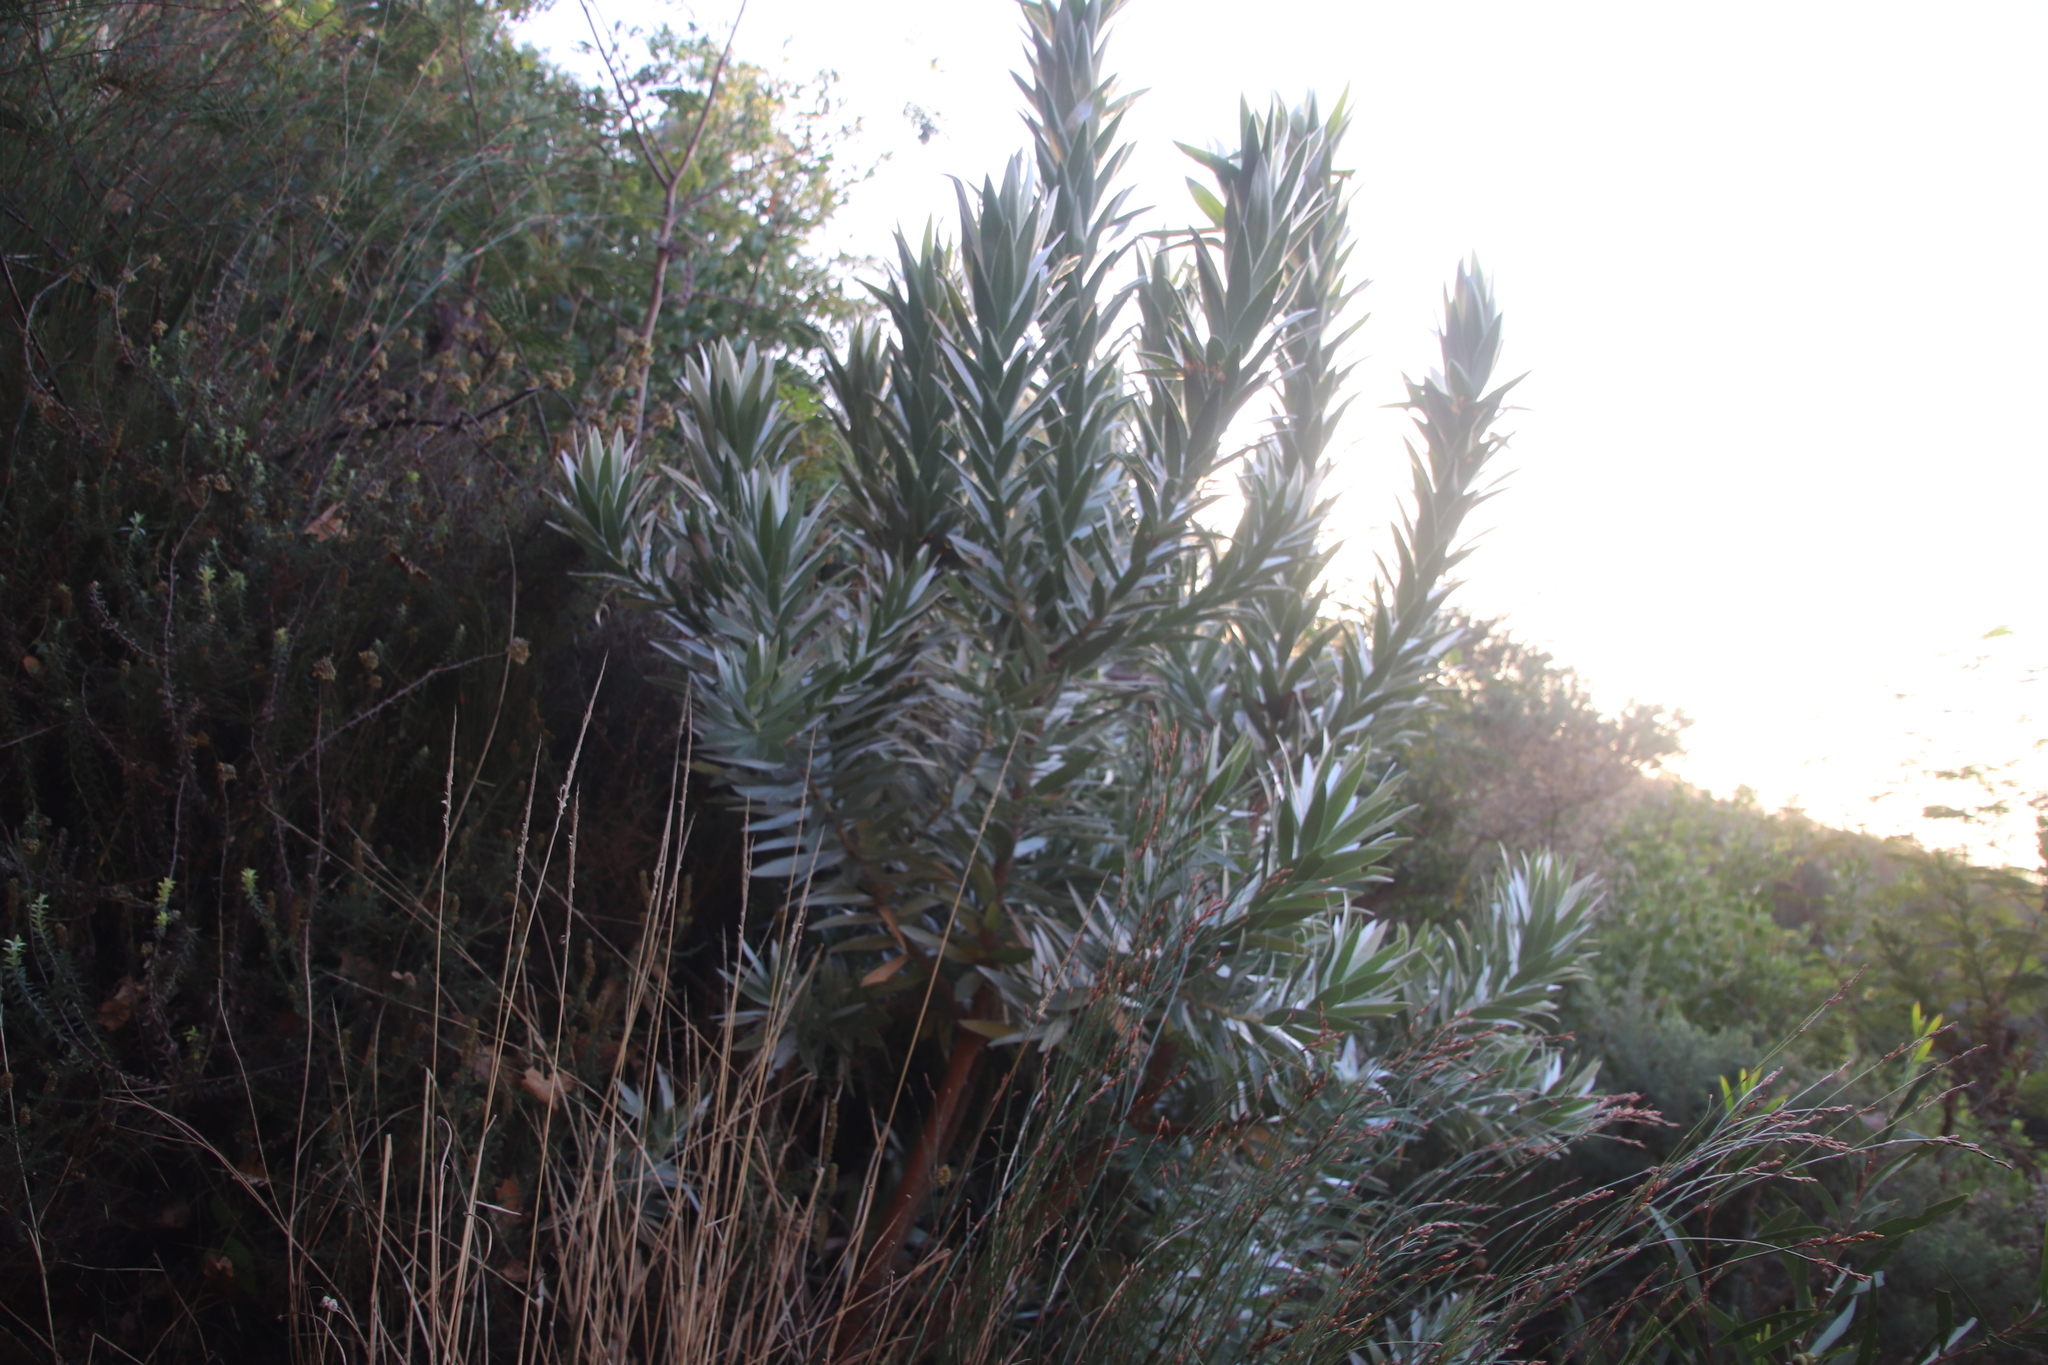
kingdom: Plantae
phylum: Tracheophyta
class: Magnoliopsida
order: Proteales
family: Proteaceae
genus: Leucadendron
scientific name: Leucadendron argenteum
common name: Cape silver tree
